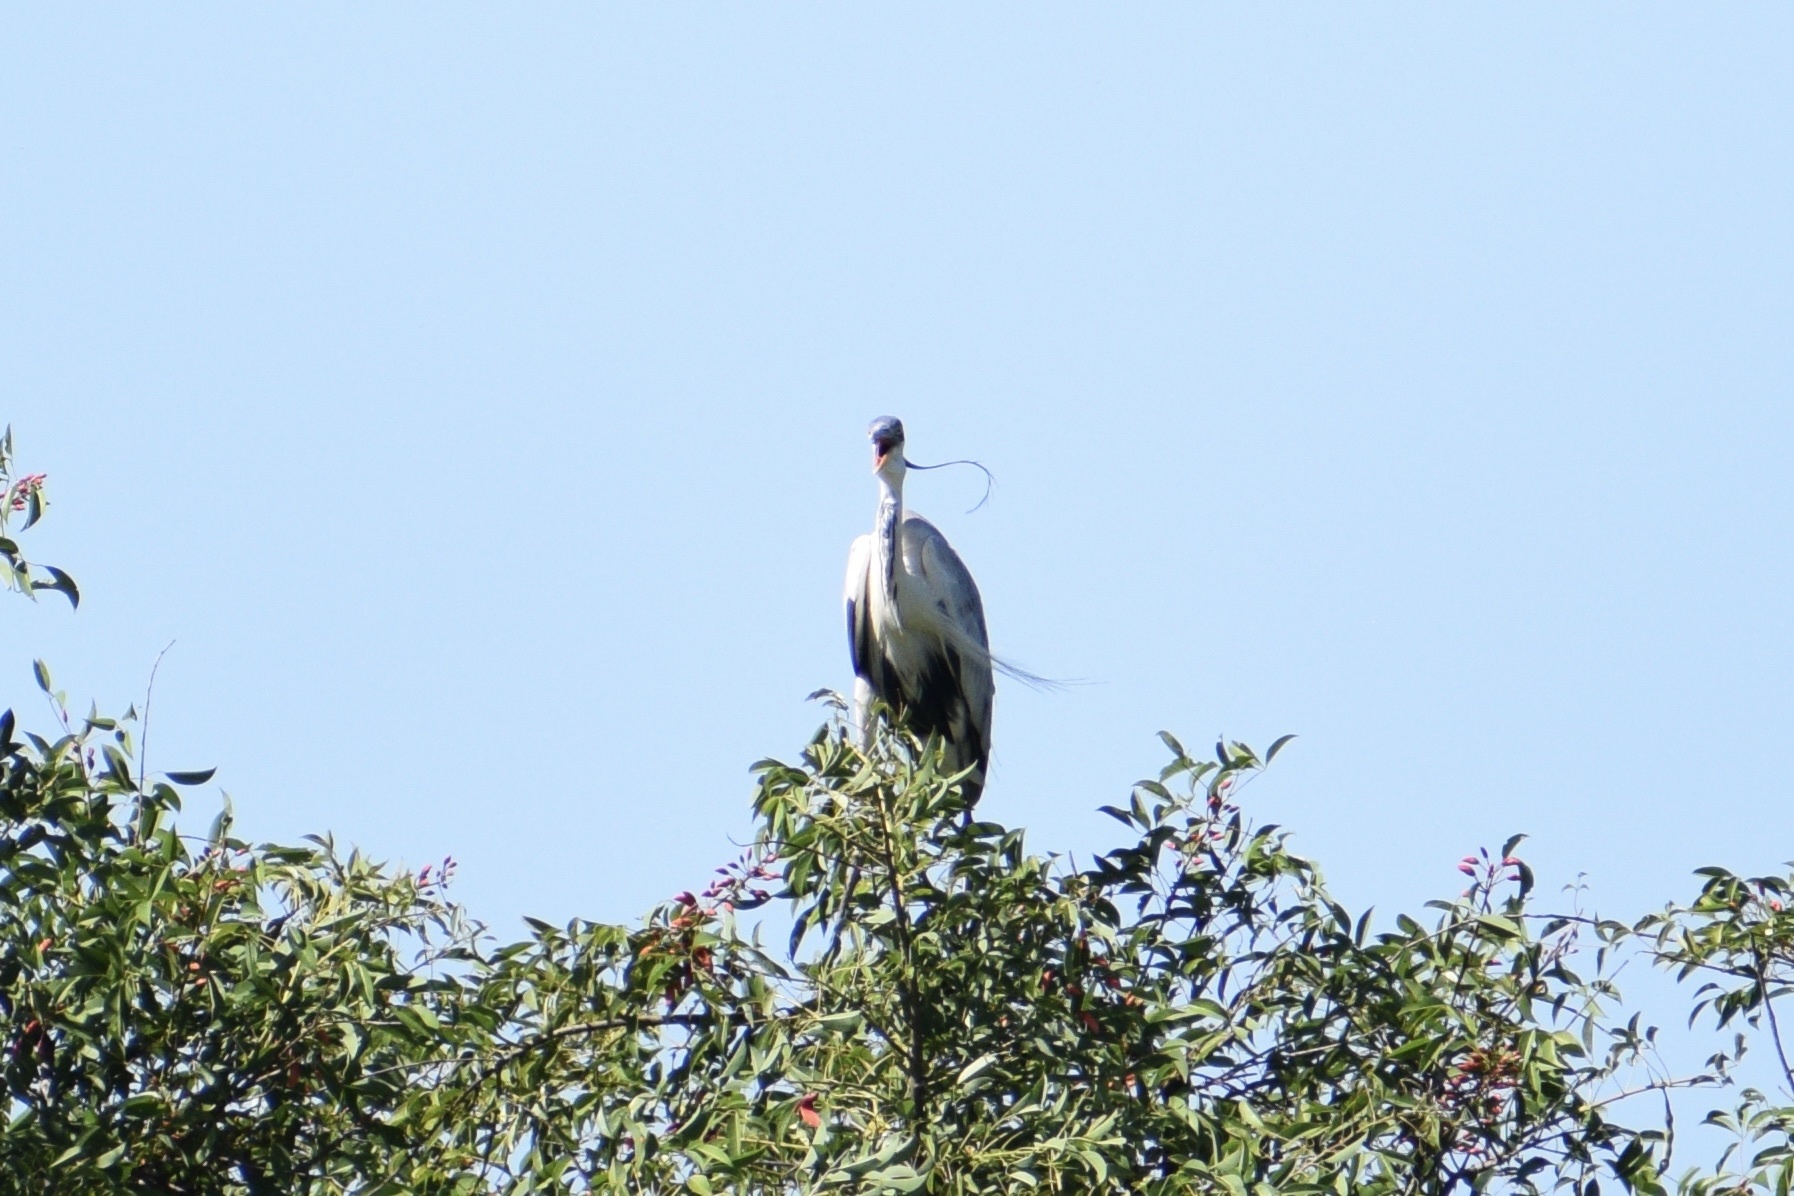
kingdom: Animalia
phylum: Chordata
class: Aves
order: Pelecaniformes
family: Ardeidae
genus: Ardea
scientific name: Ardea cocoi
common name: Cocoi heron
